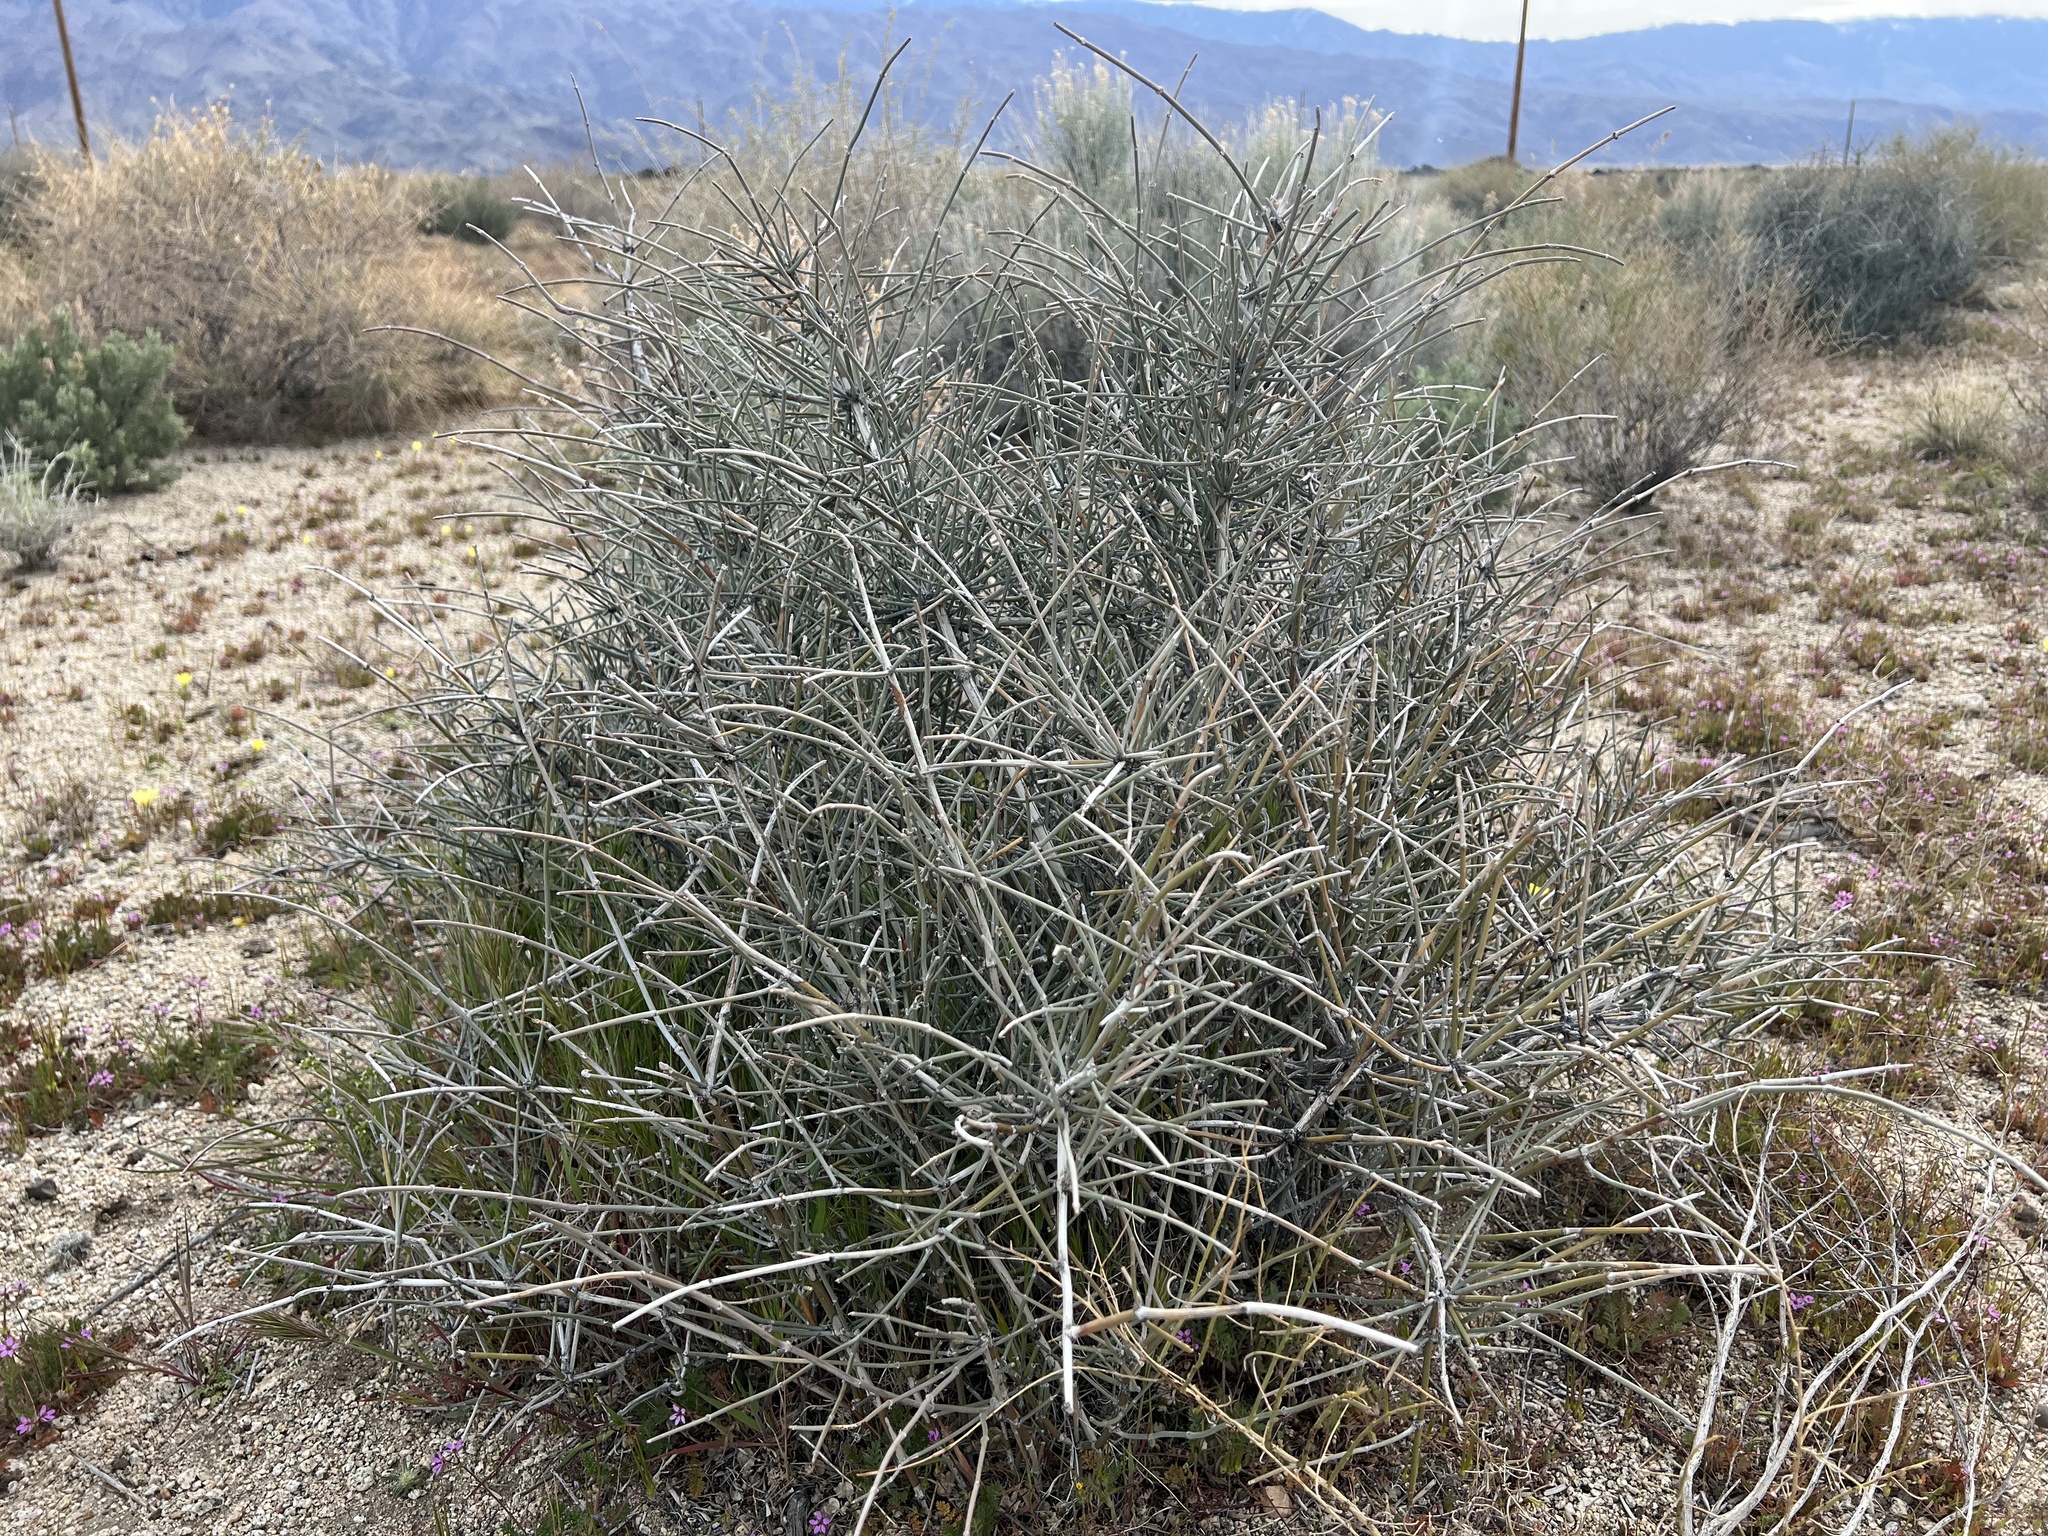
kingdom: Plantae
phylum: Tracheophyta
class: Gnetopsida
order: Ephedrales
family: Ephedraceae
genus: Ephedra
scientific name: Ephedra nevadensis
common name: Gray ephedra
